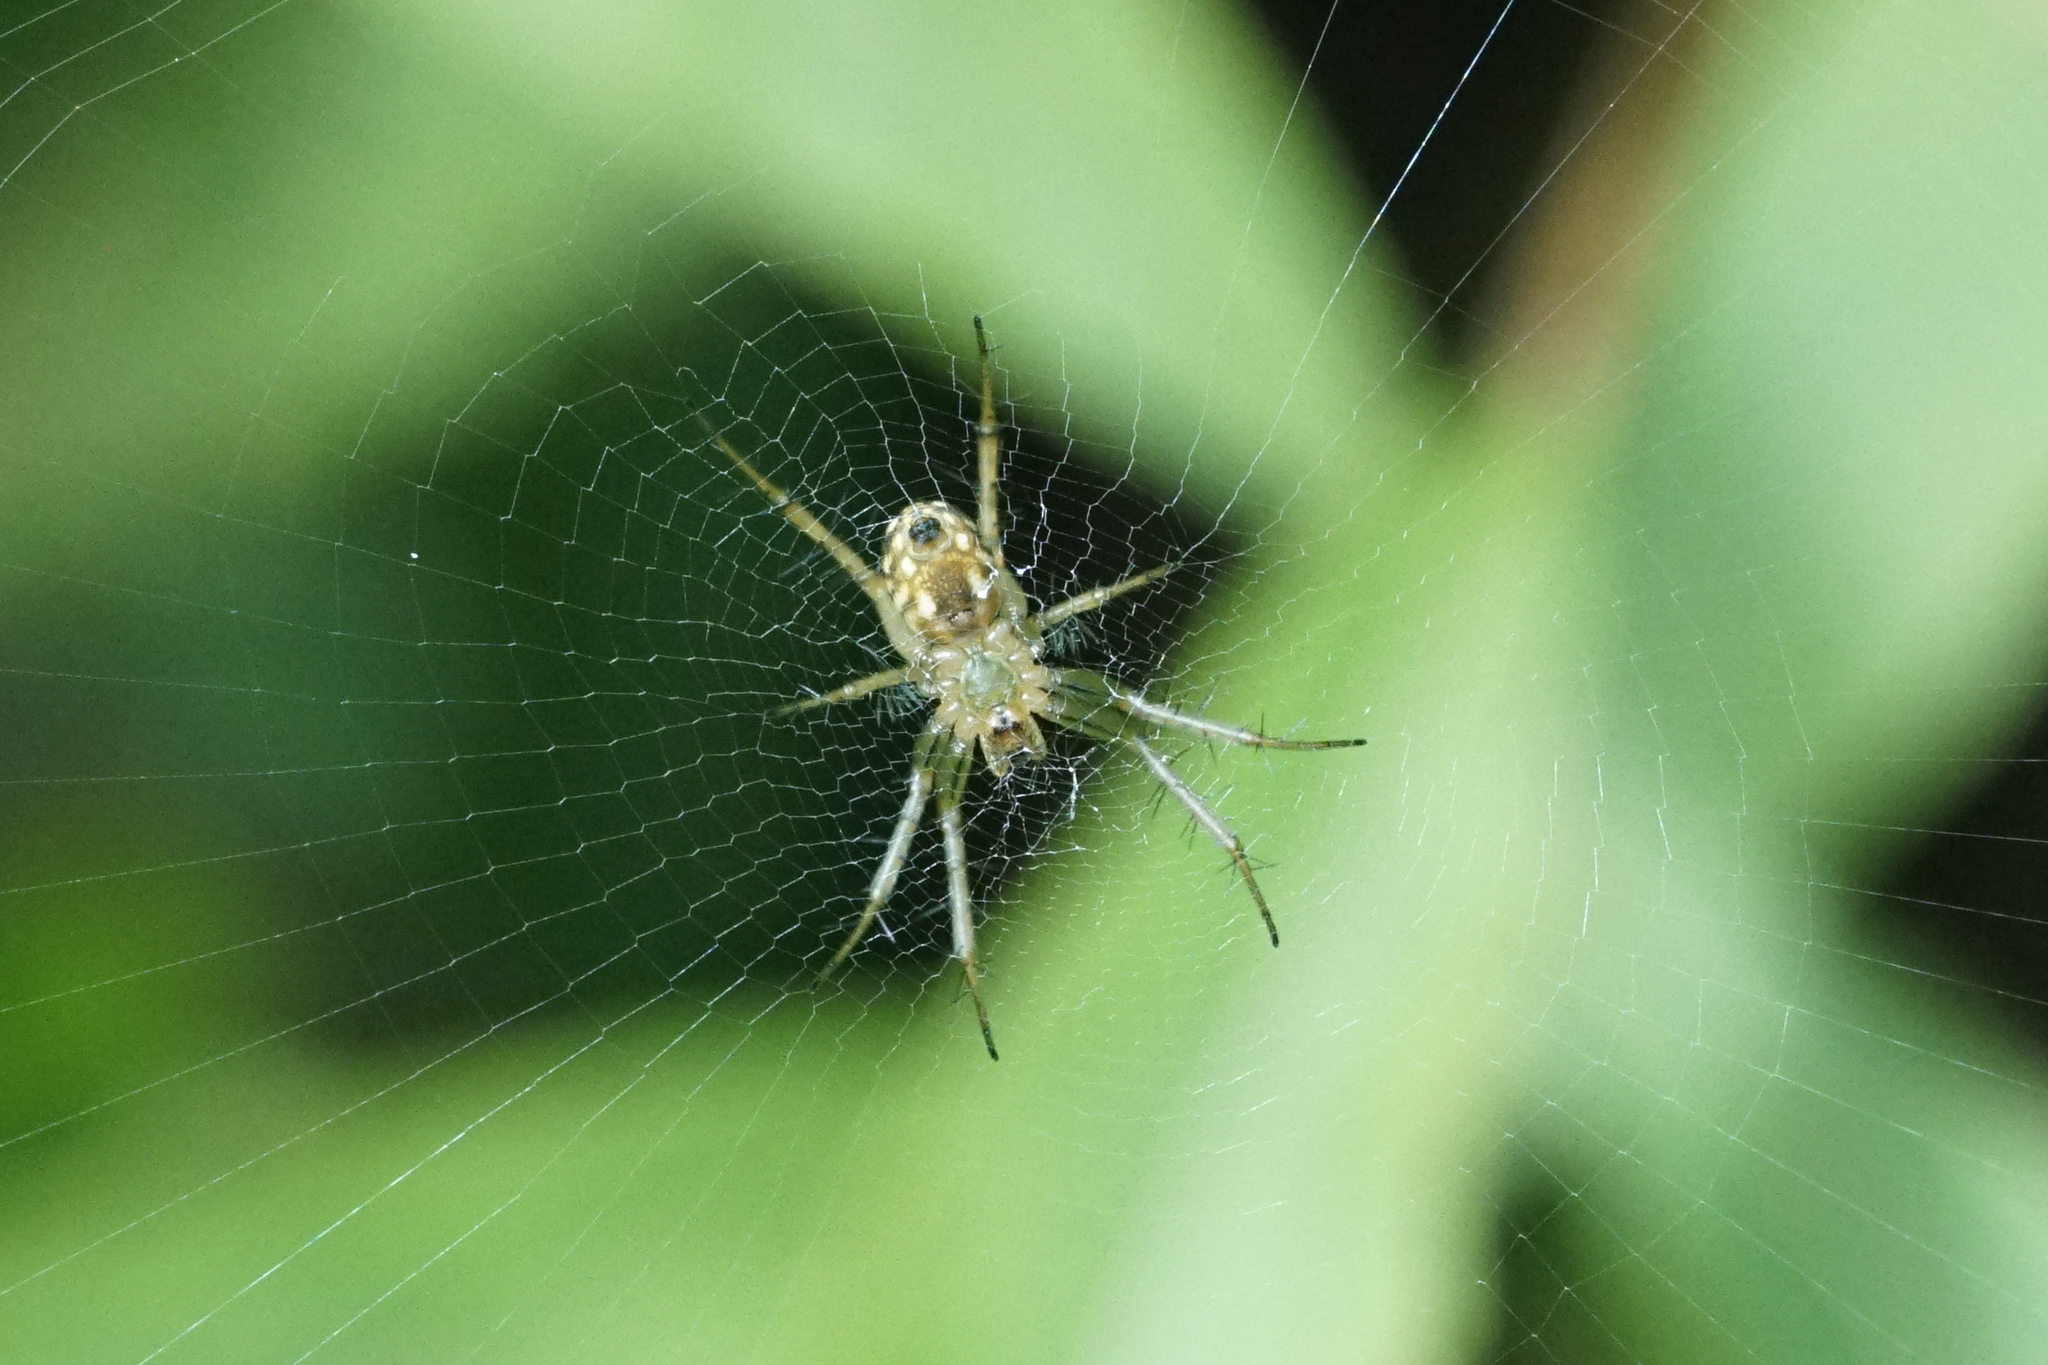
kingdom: Animalia
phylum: Arthropoda
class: Arachnida
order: Araneae
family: Araneidae
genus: Mangora
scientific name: Mangora gibberosa
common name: Lined orbweaver
